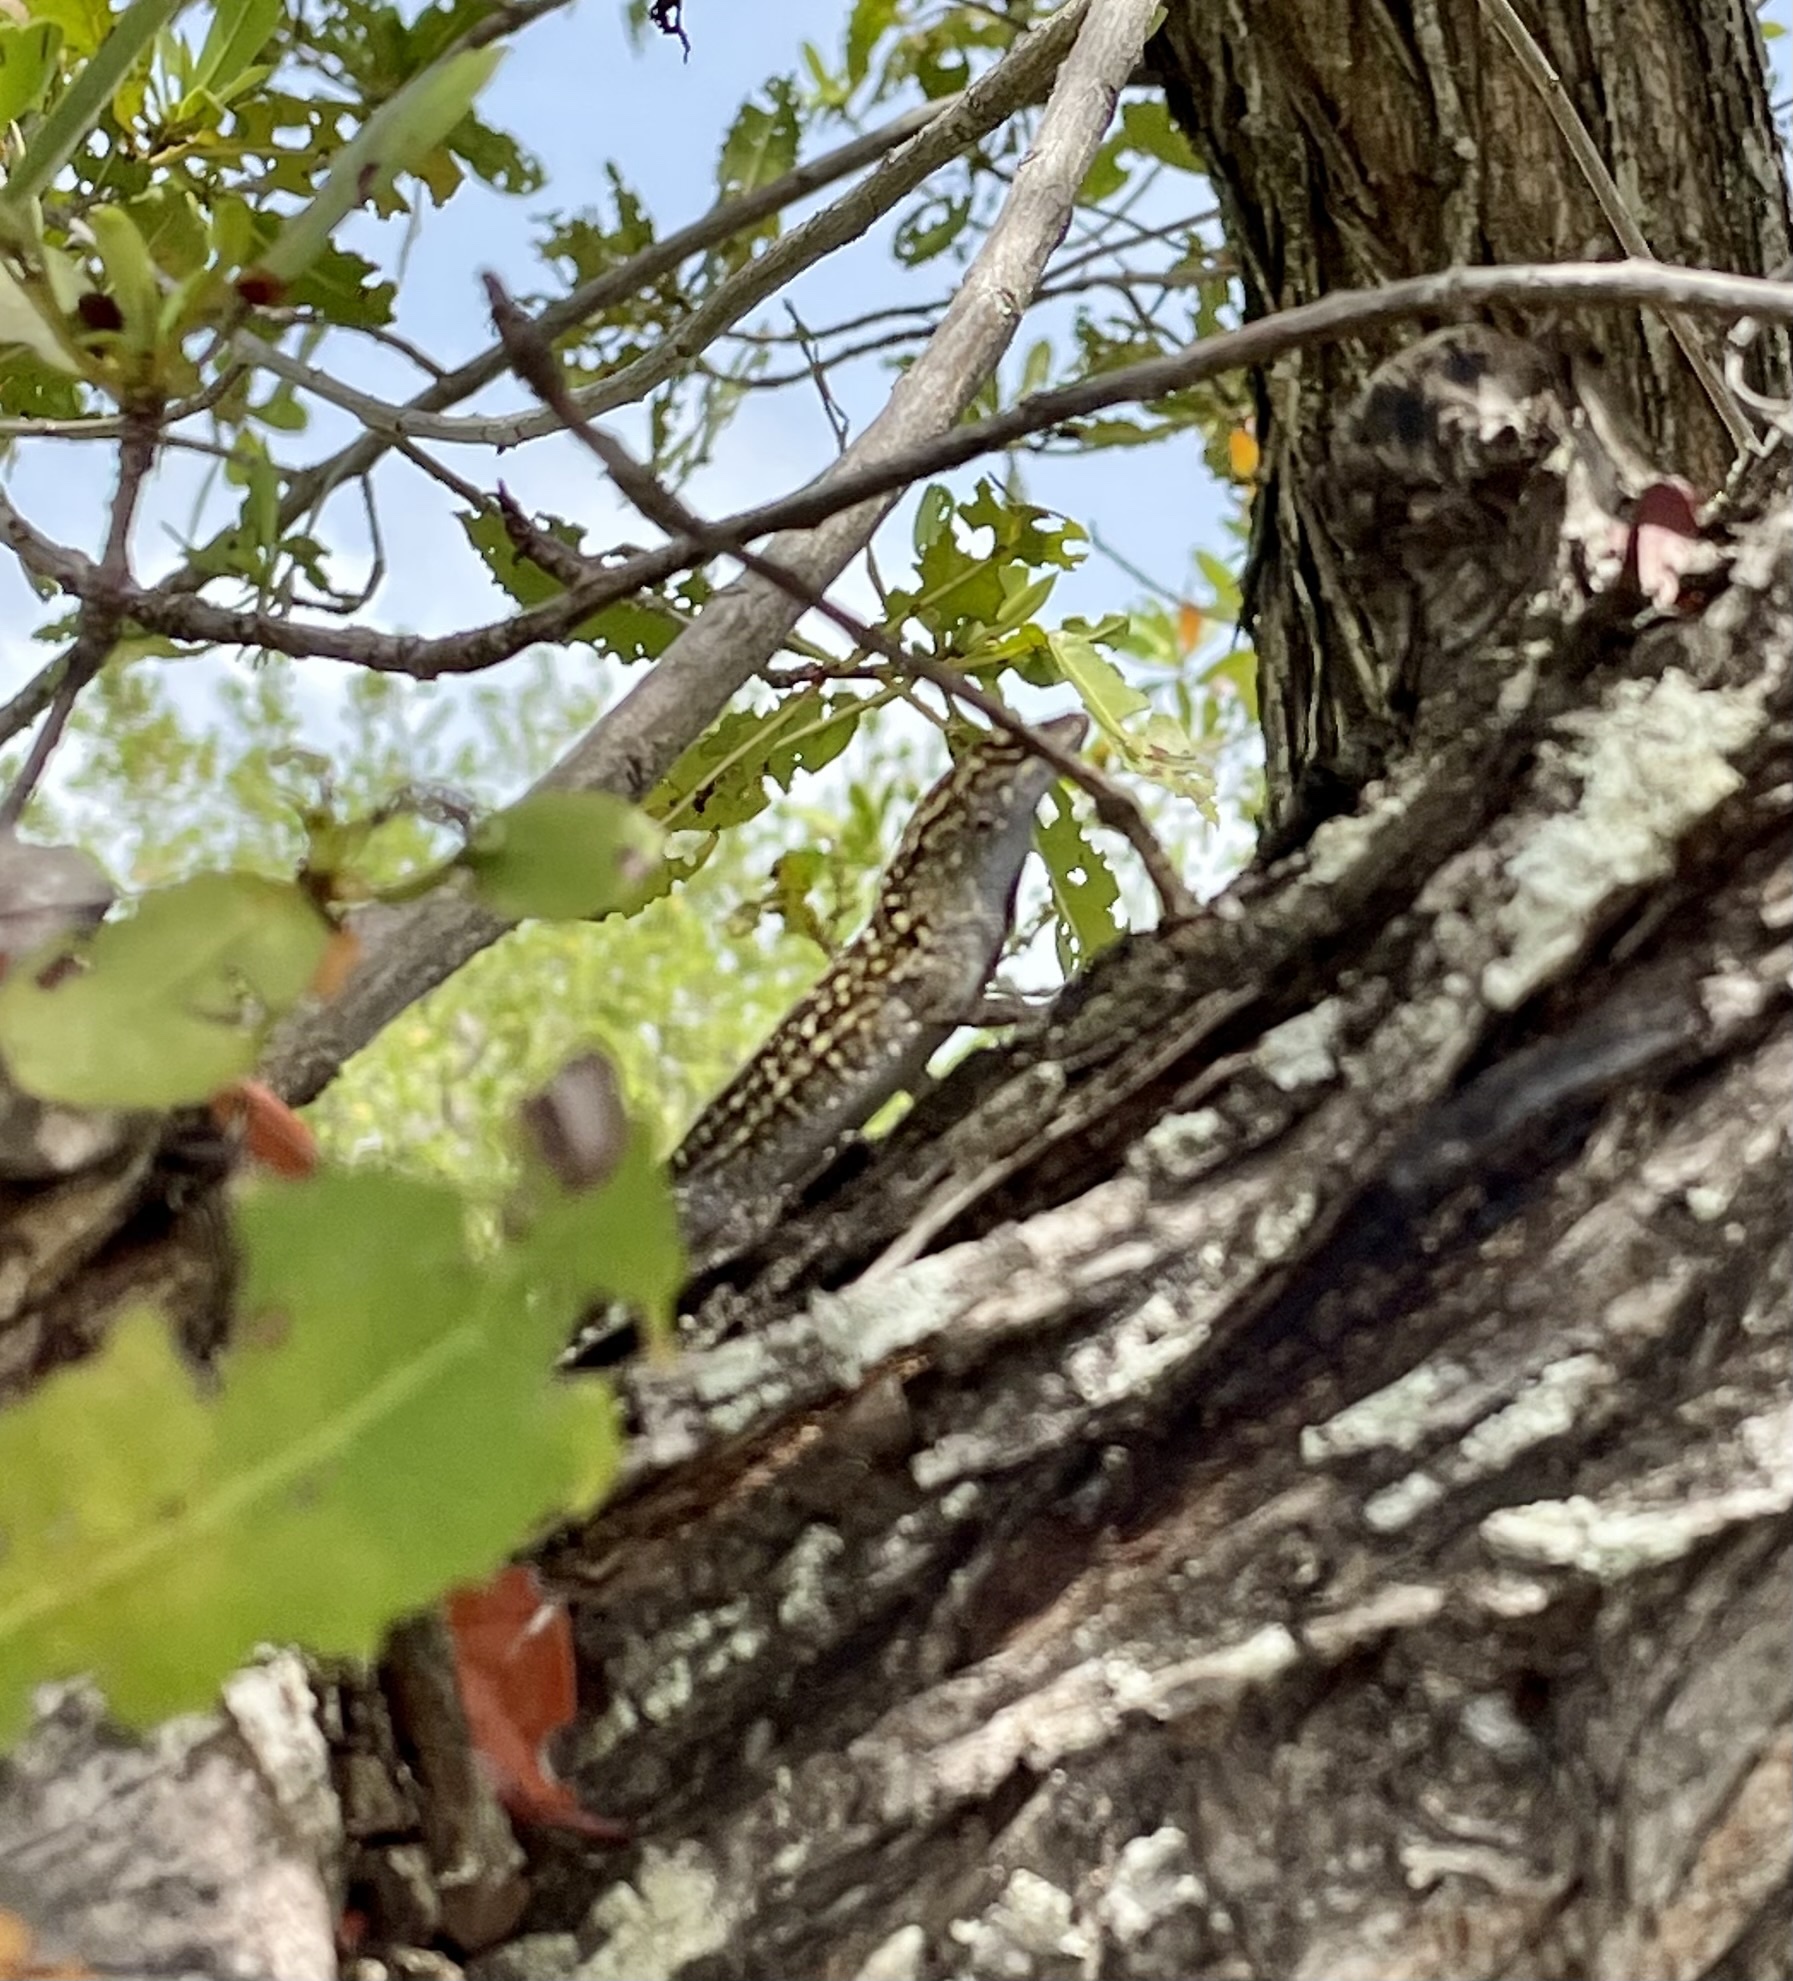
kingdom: Animalia
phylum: Chordata
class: Squamata
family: Dactyloidae
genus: Anolis
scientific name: Anolis sagrei
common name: Brown anole
